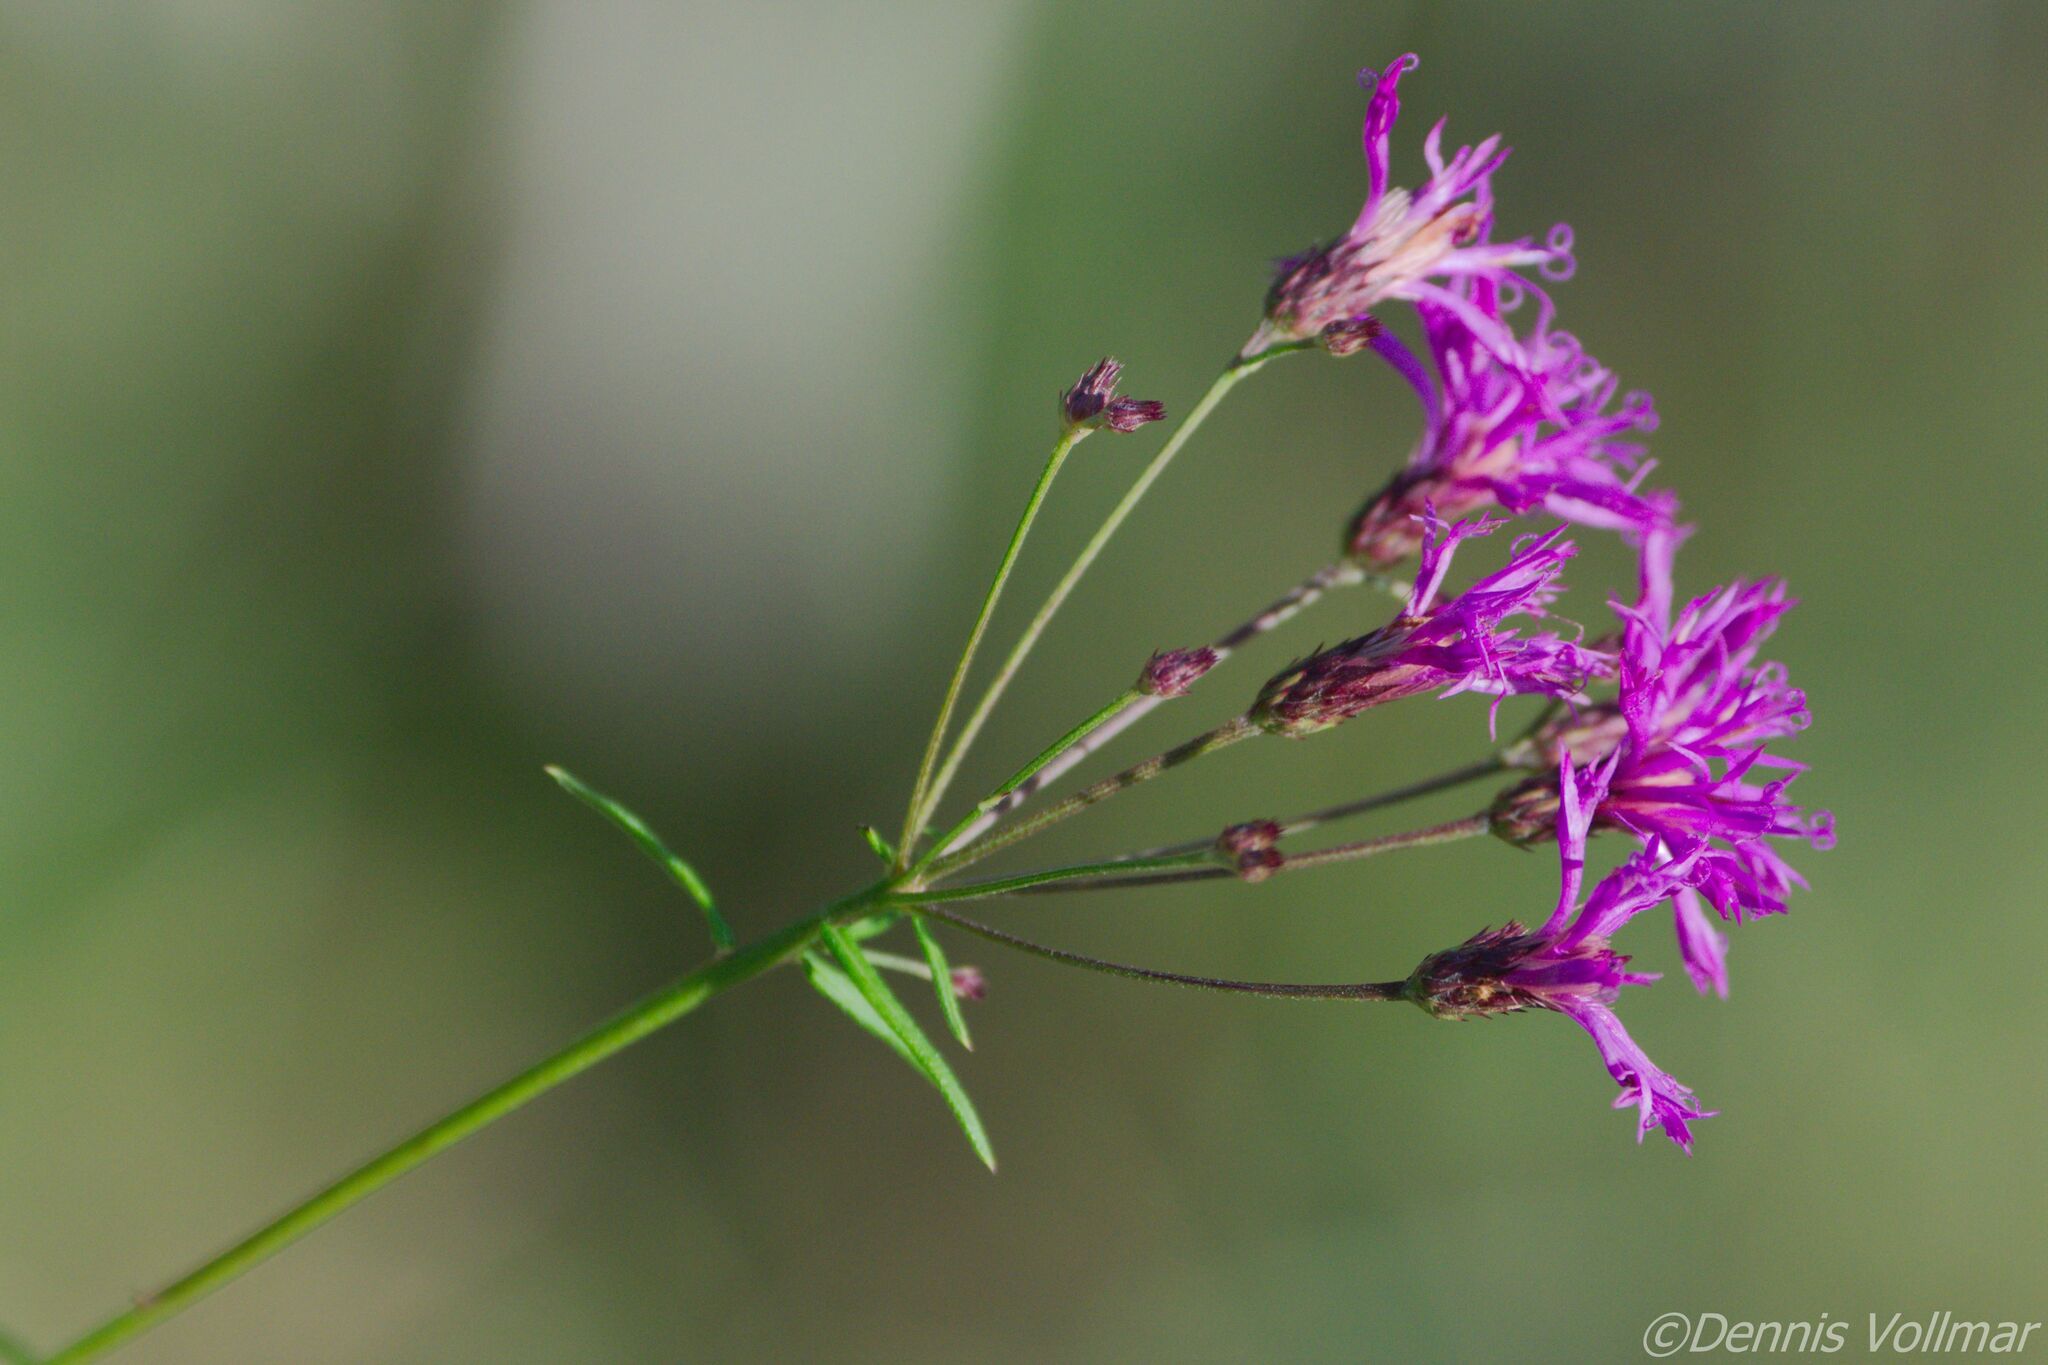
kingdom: Plantae
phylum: Tracheophyta
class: Magnoliopsida
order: Asterales
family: Asteraceae
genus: Vernonia
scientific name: Vernonia angustifolia
